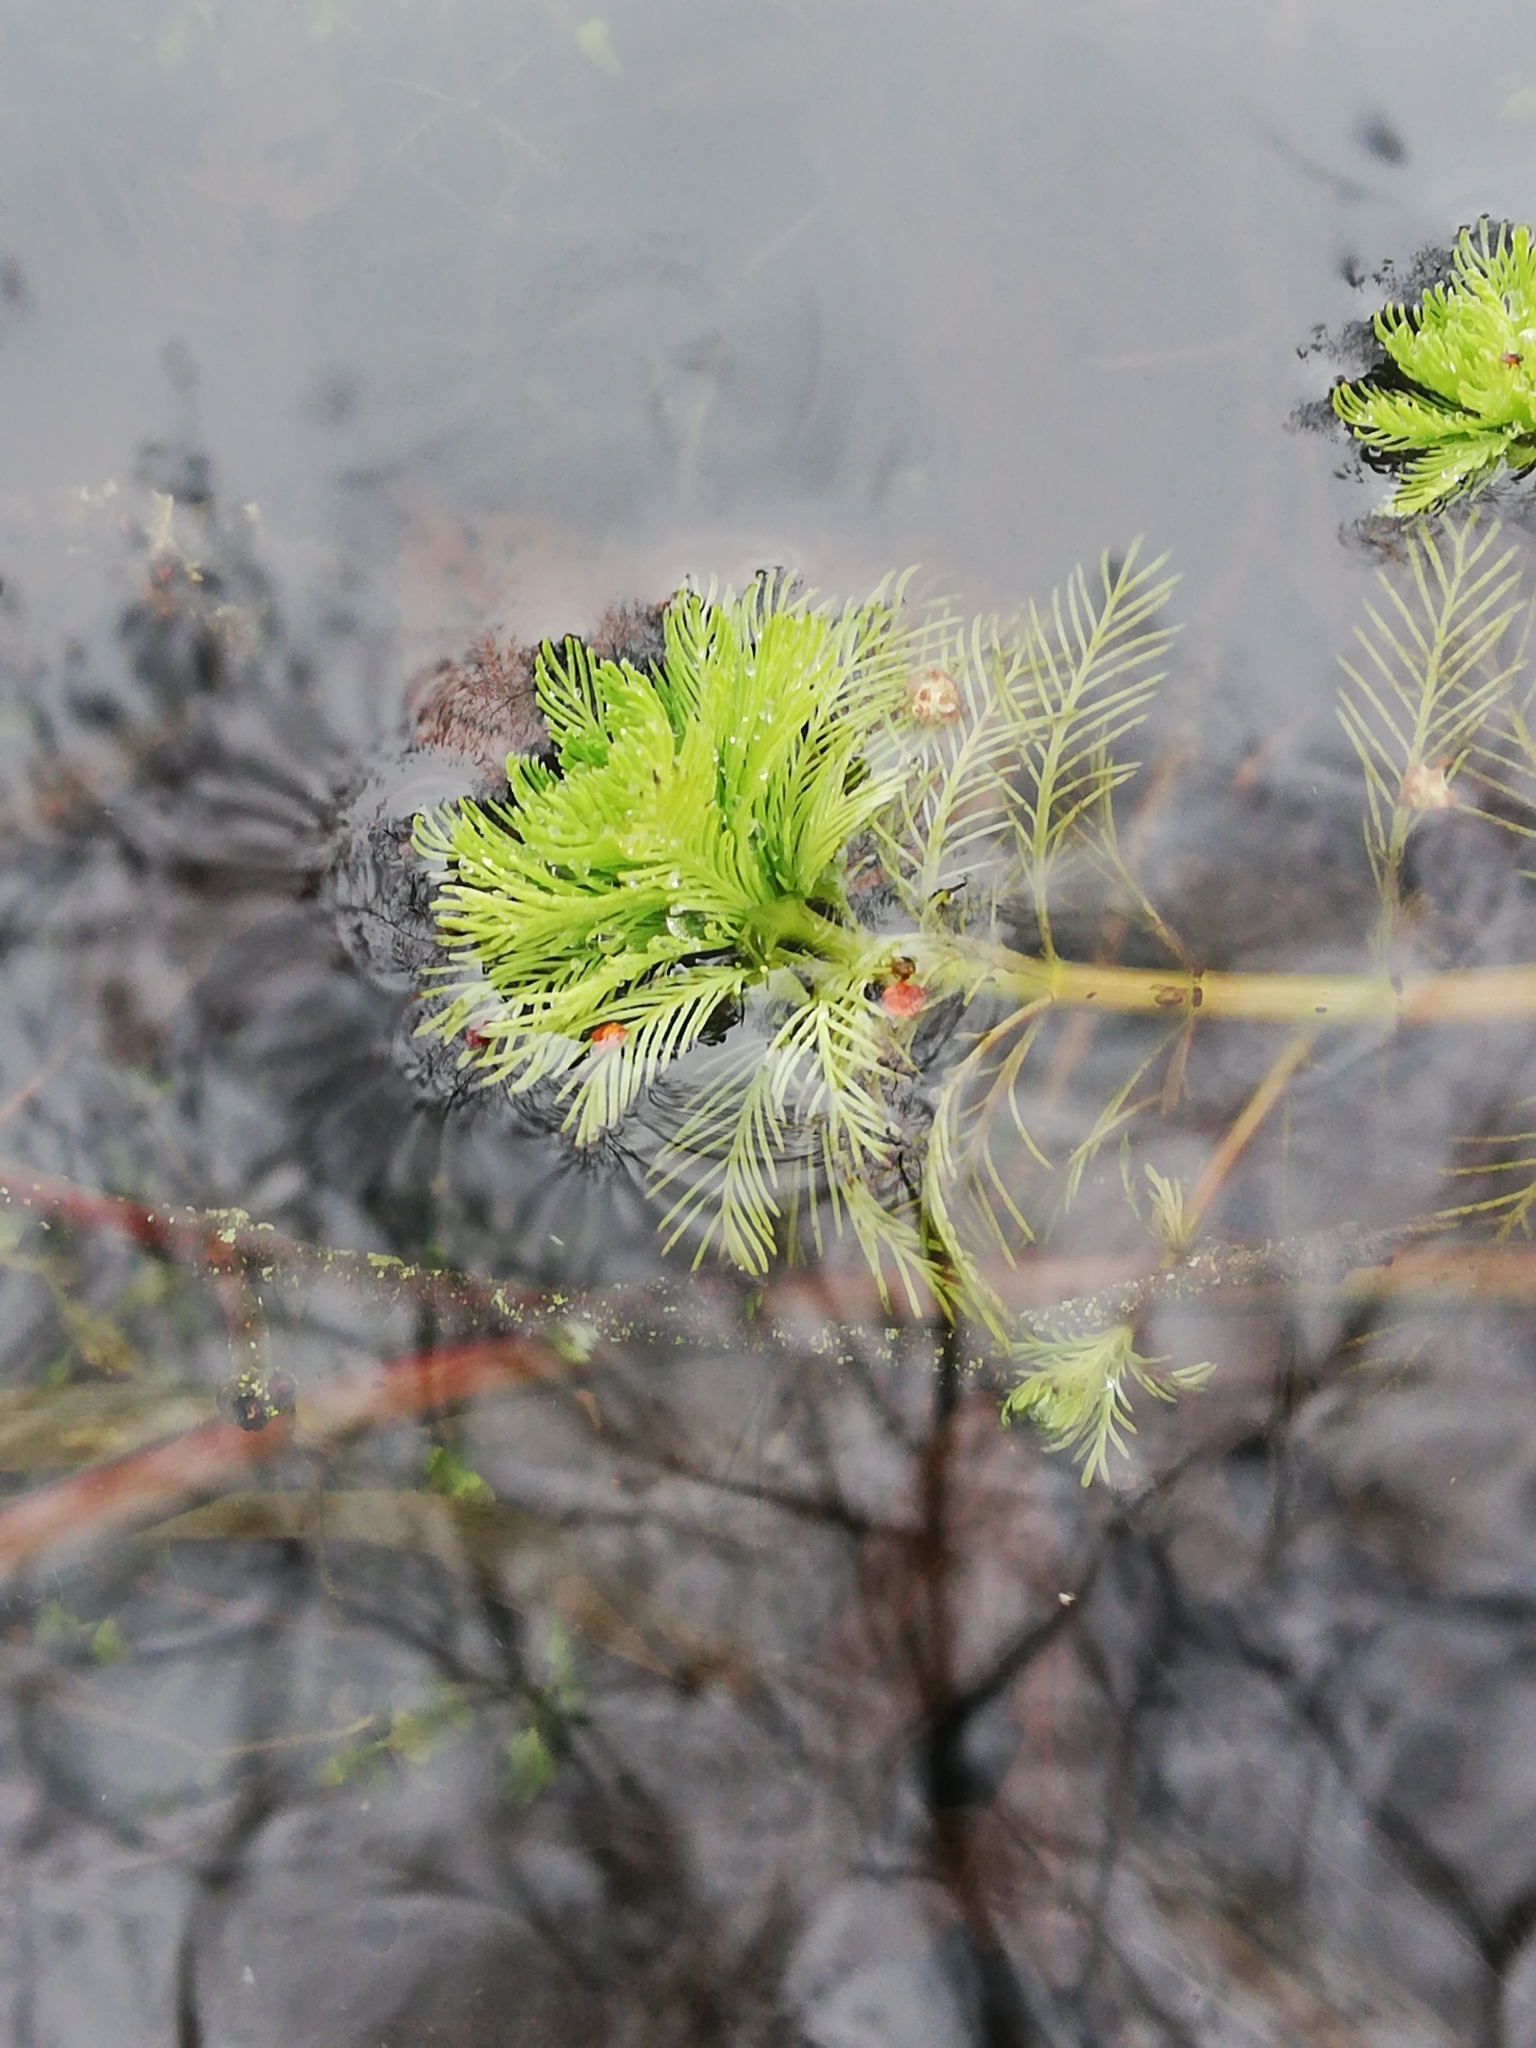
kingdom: Plantae
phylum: Tracheophyta
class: Magnoliopsida
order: Saxifragales
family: Haloragaceae
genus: Myriophyllum
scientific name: Myriophyllum aquaticum
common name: Parrot's feather
